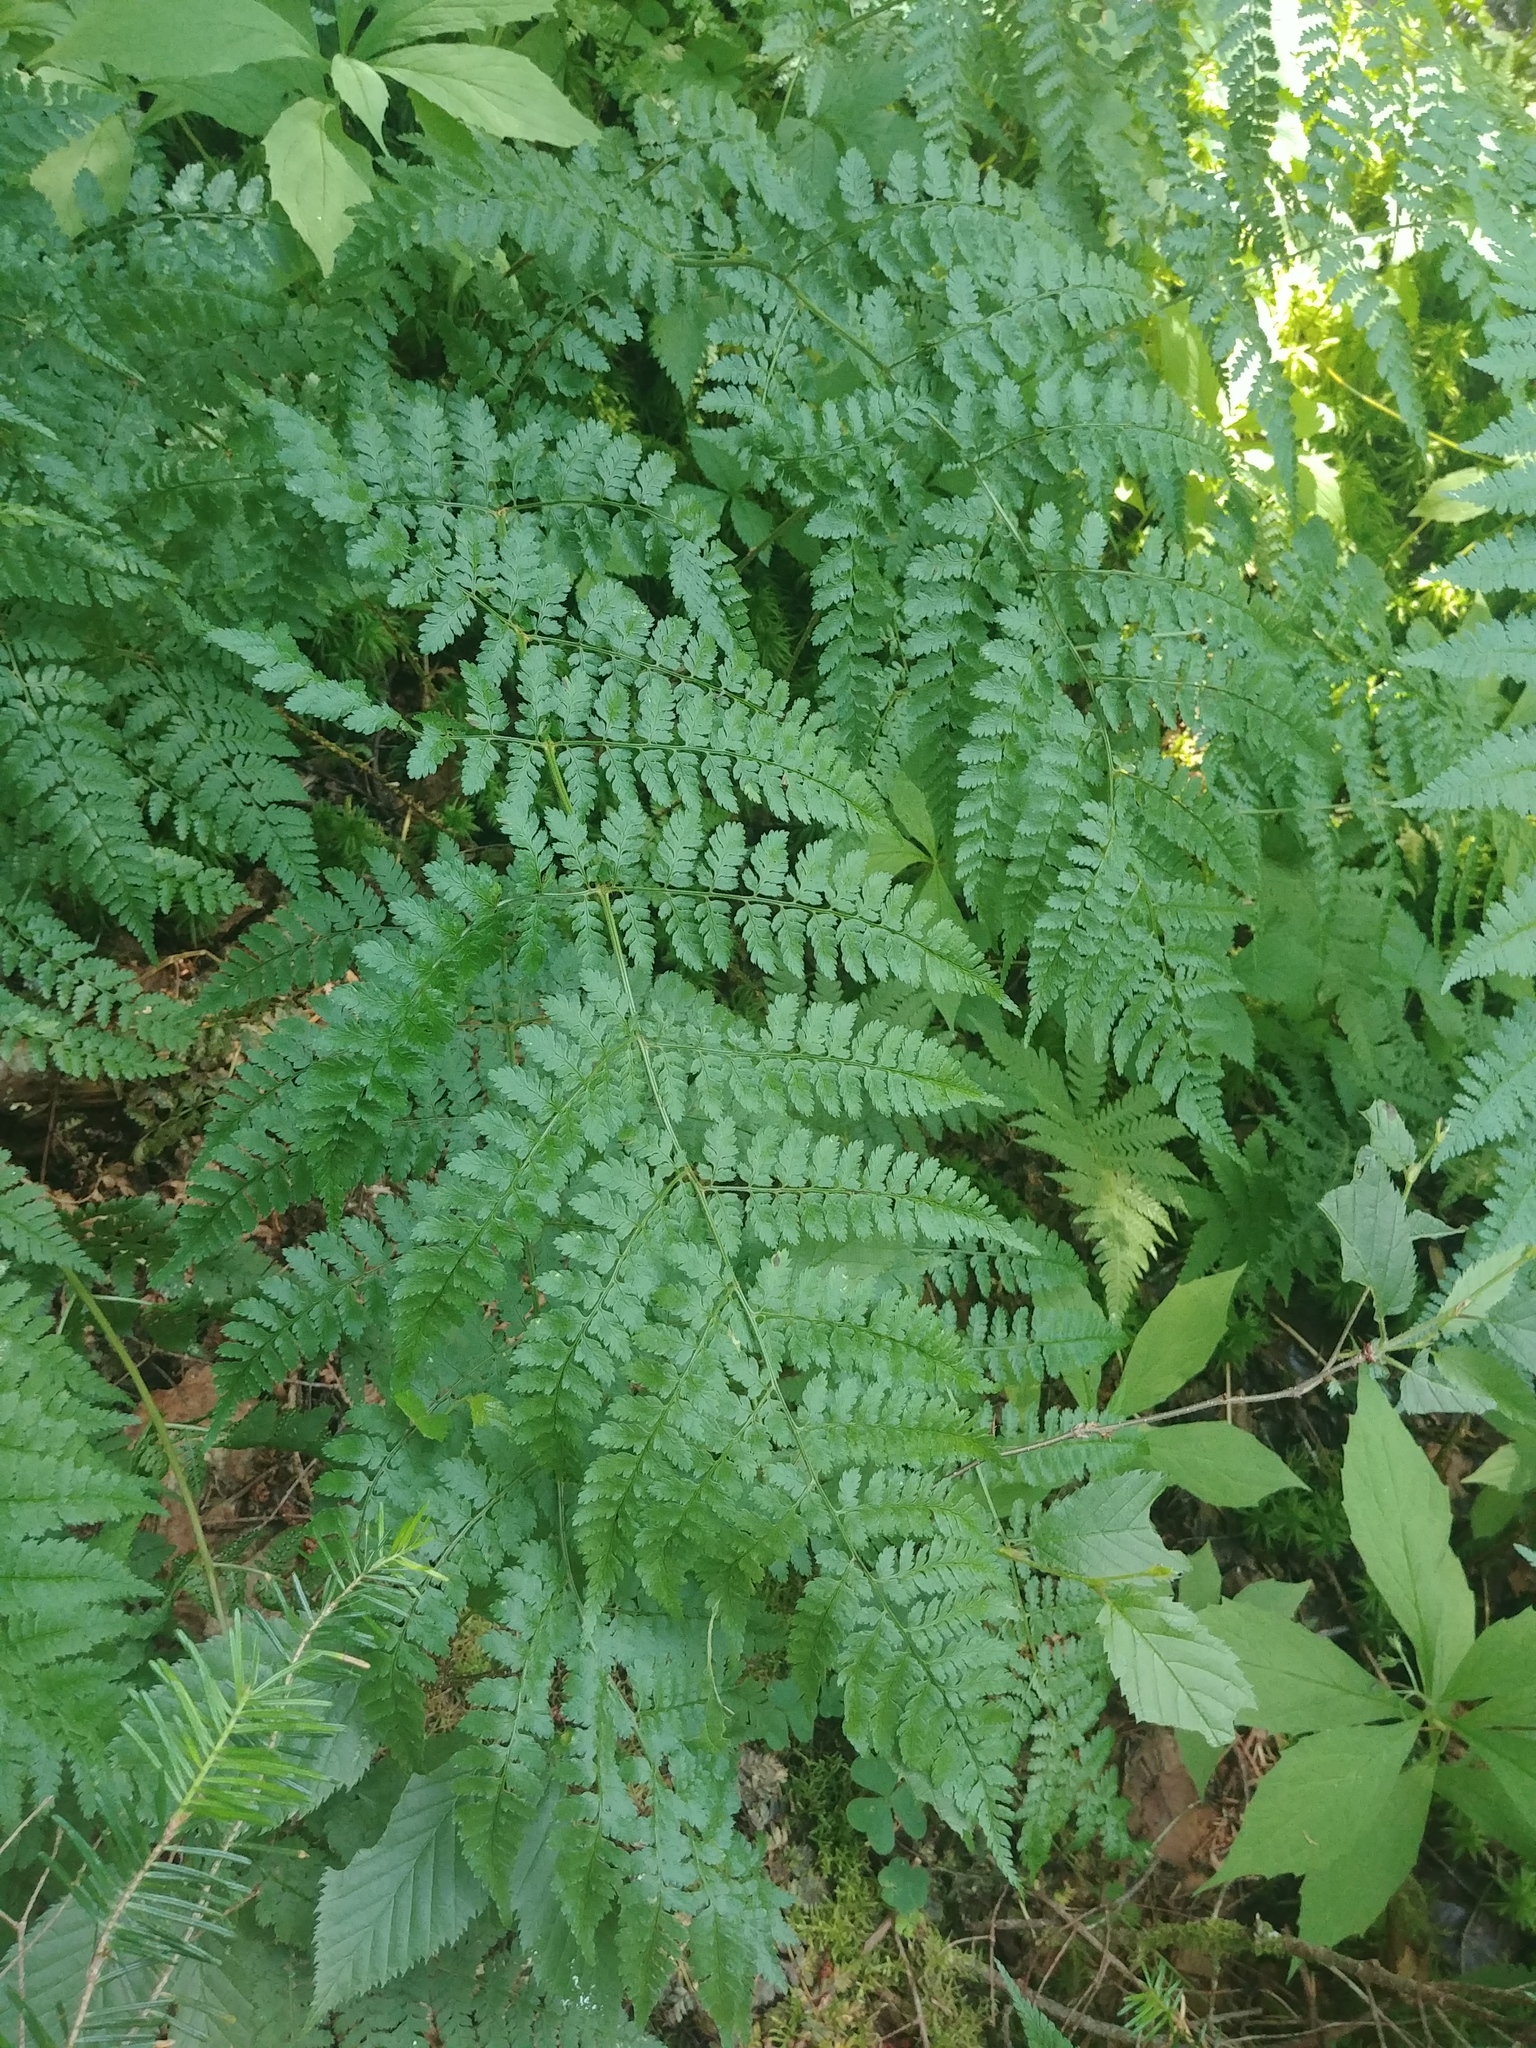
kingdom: Plantae
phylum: Tracheophyta
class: Polypodiopsida
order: Polypodiales
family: Dryopteridaceae
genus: Dryopteris
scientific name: Dryopteris intermedia
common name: Evergreen wood fern
